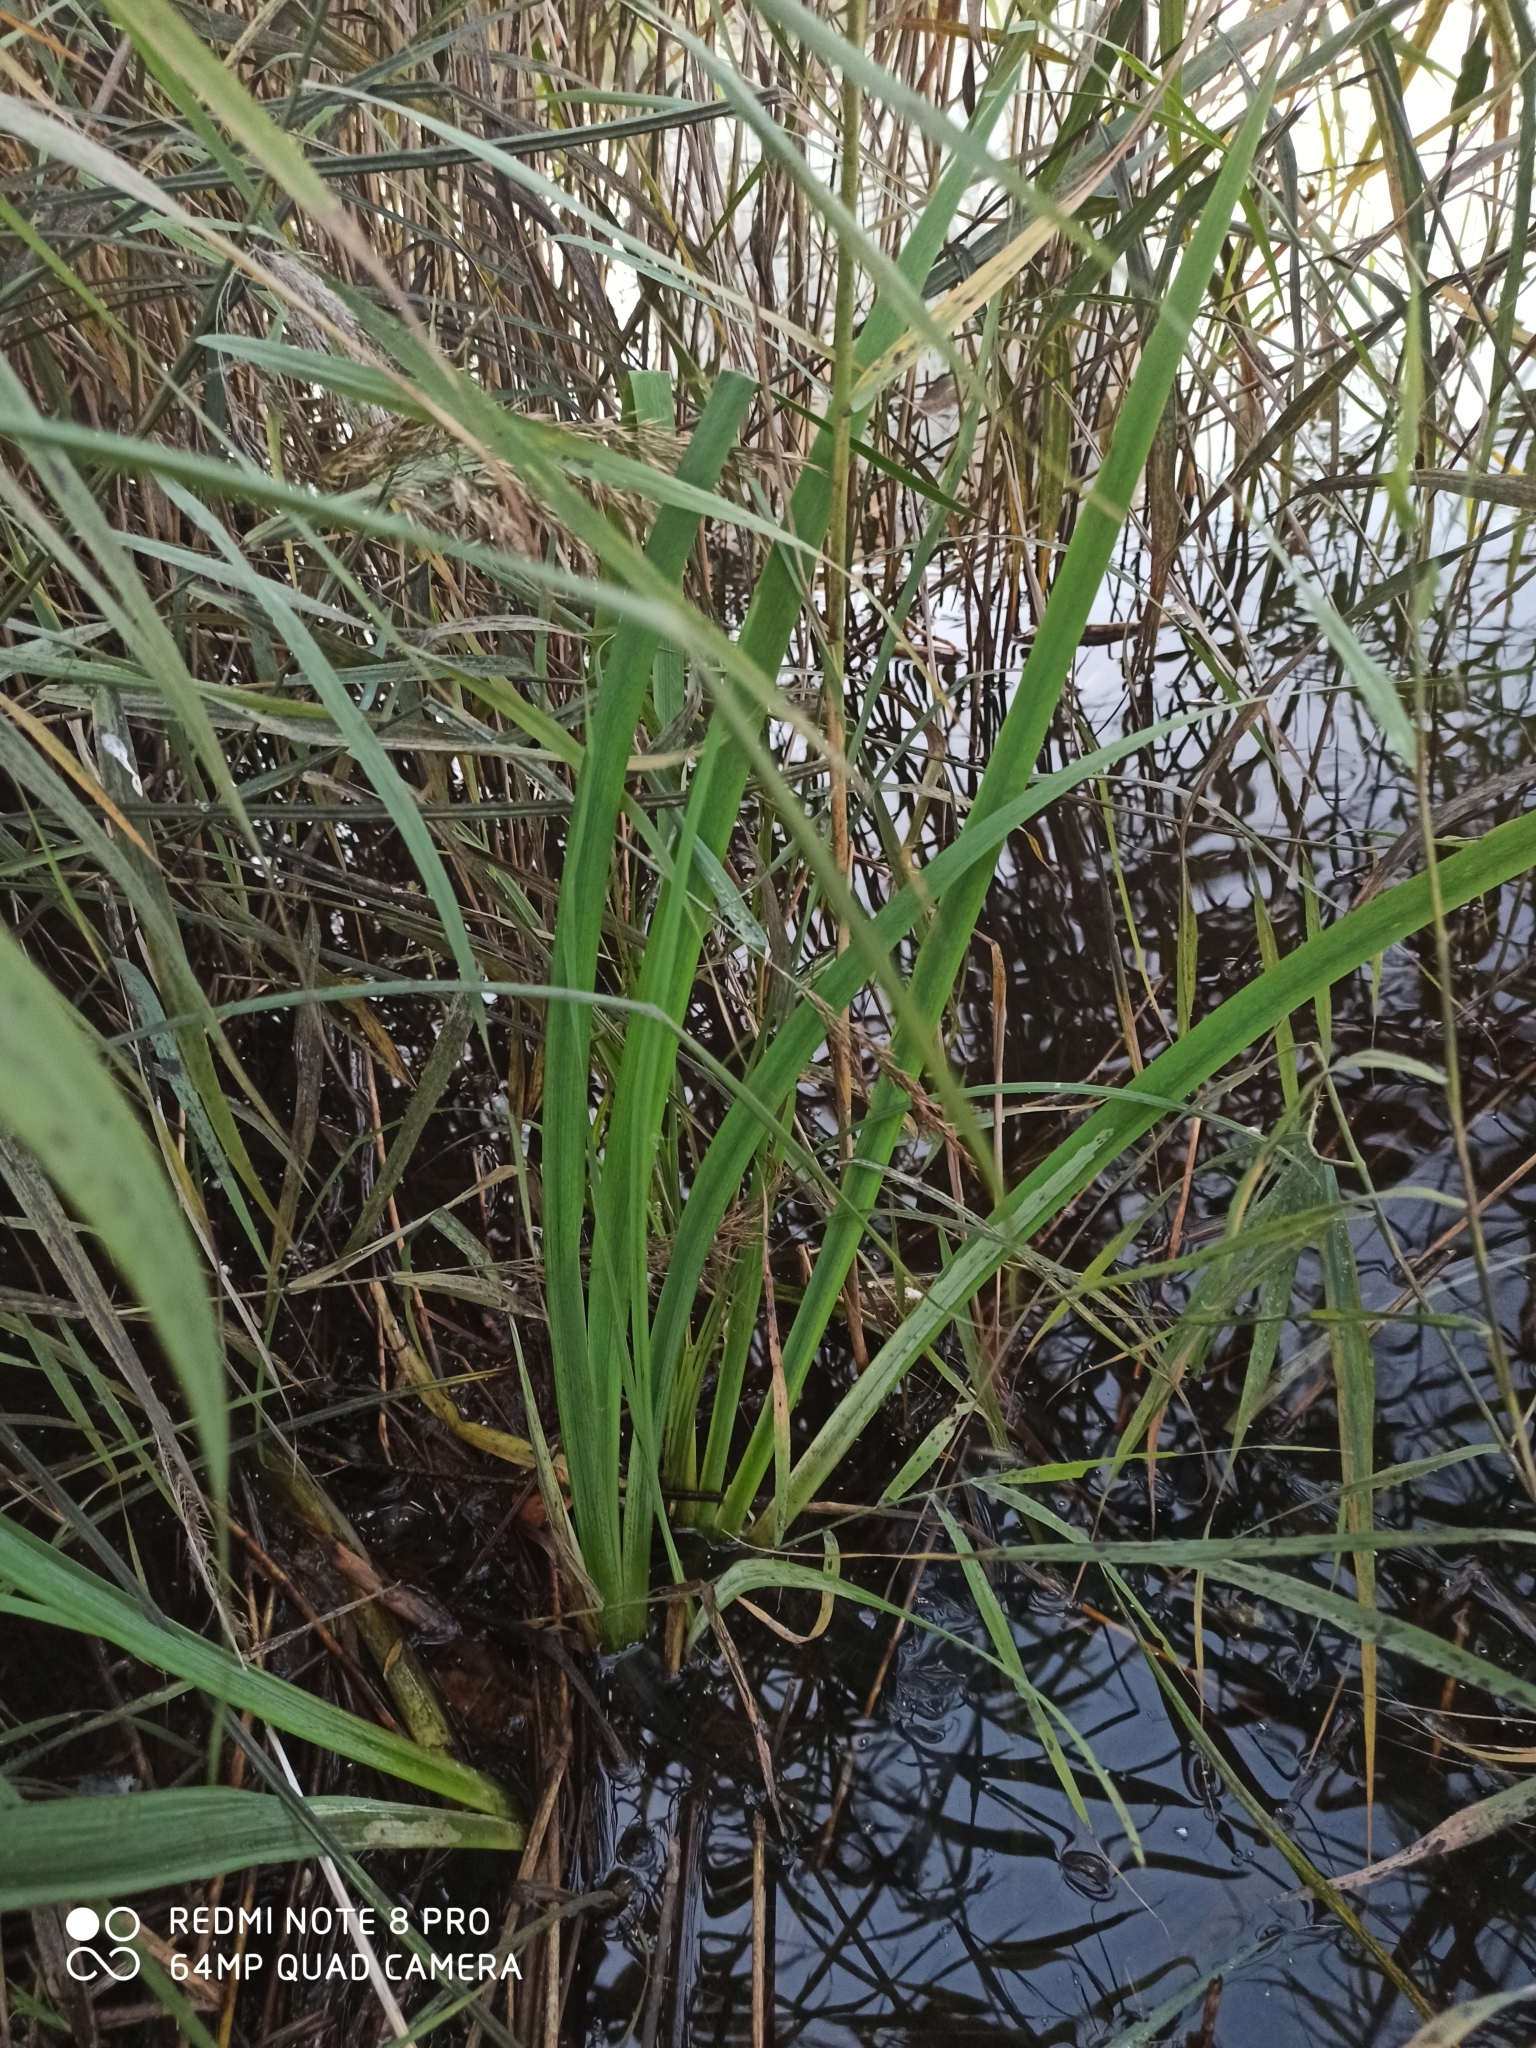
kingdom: Plantae
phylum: Tracheophyta
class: Liliopsida
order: Asparagales
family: Iridaceae
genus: Iris
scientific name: Iris pseudacorus
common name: Yellow flag
